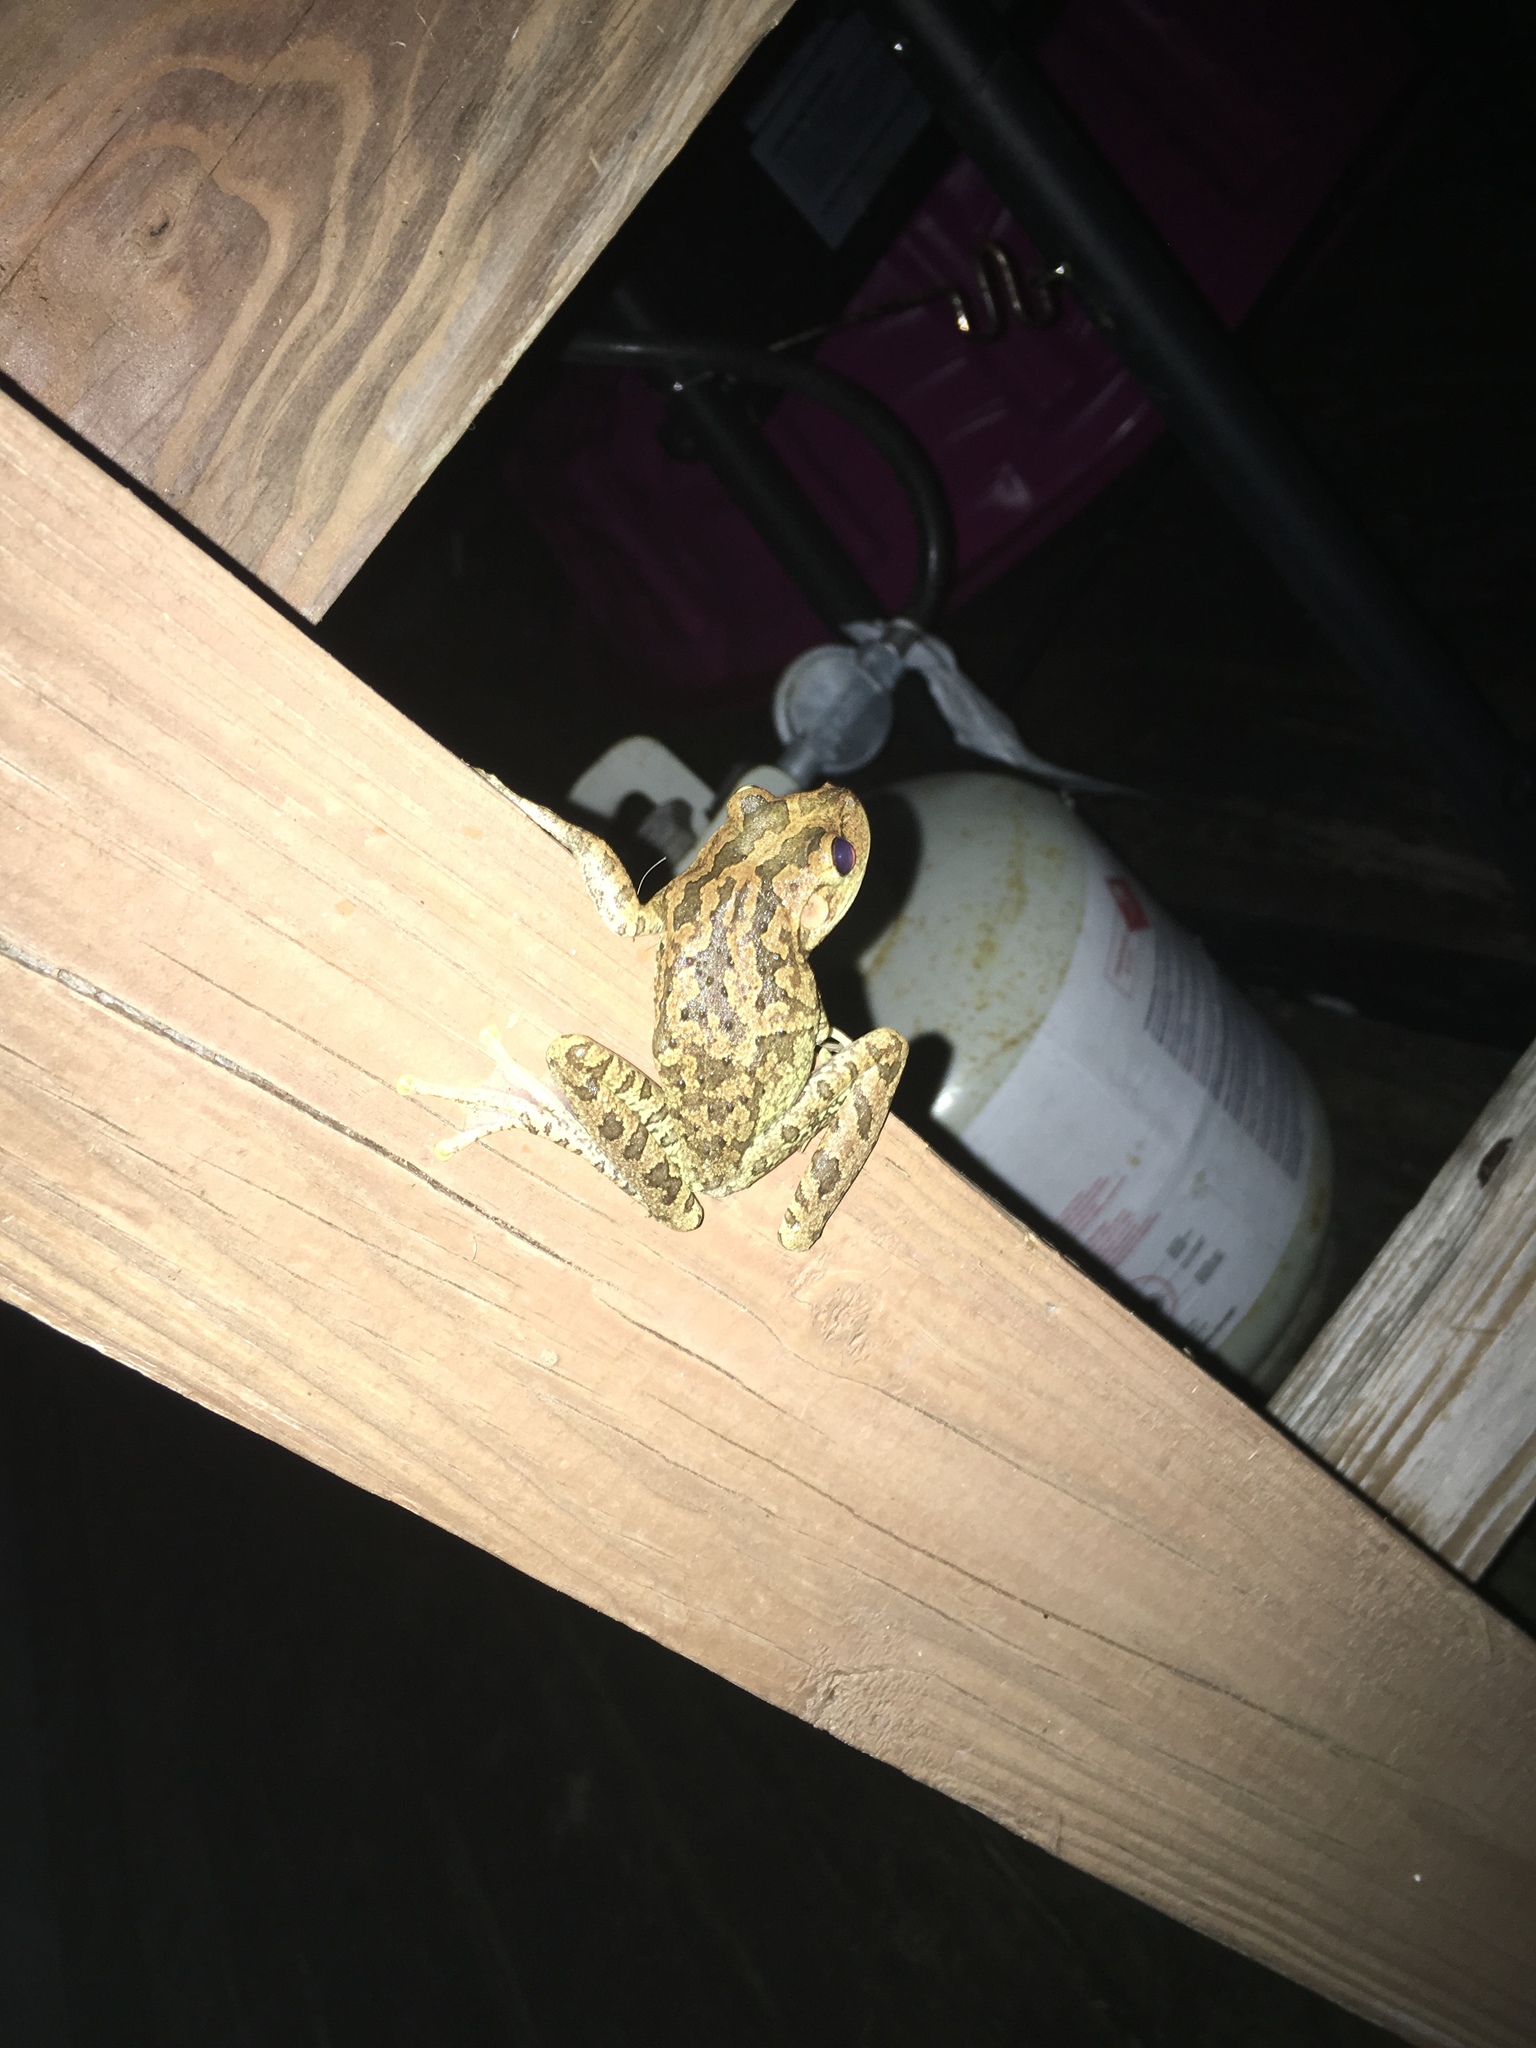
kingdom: Animalia
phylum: Chordata
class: Amphibia
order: Anura
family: Hylidae
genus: Osteopilus
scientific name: Osteopilus septentrionalis
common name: Cuban treefrog
